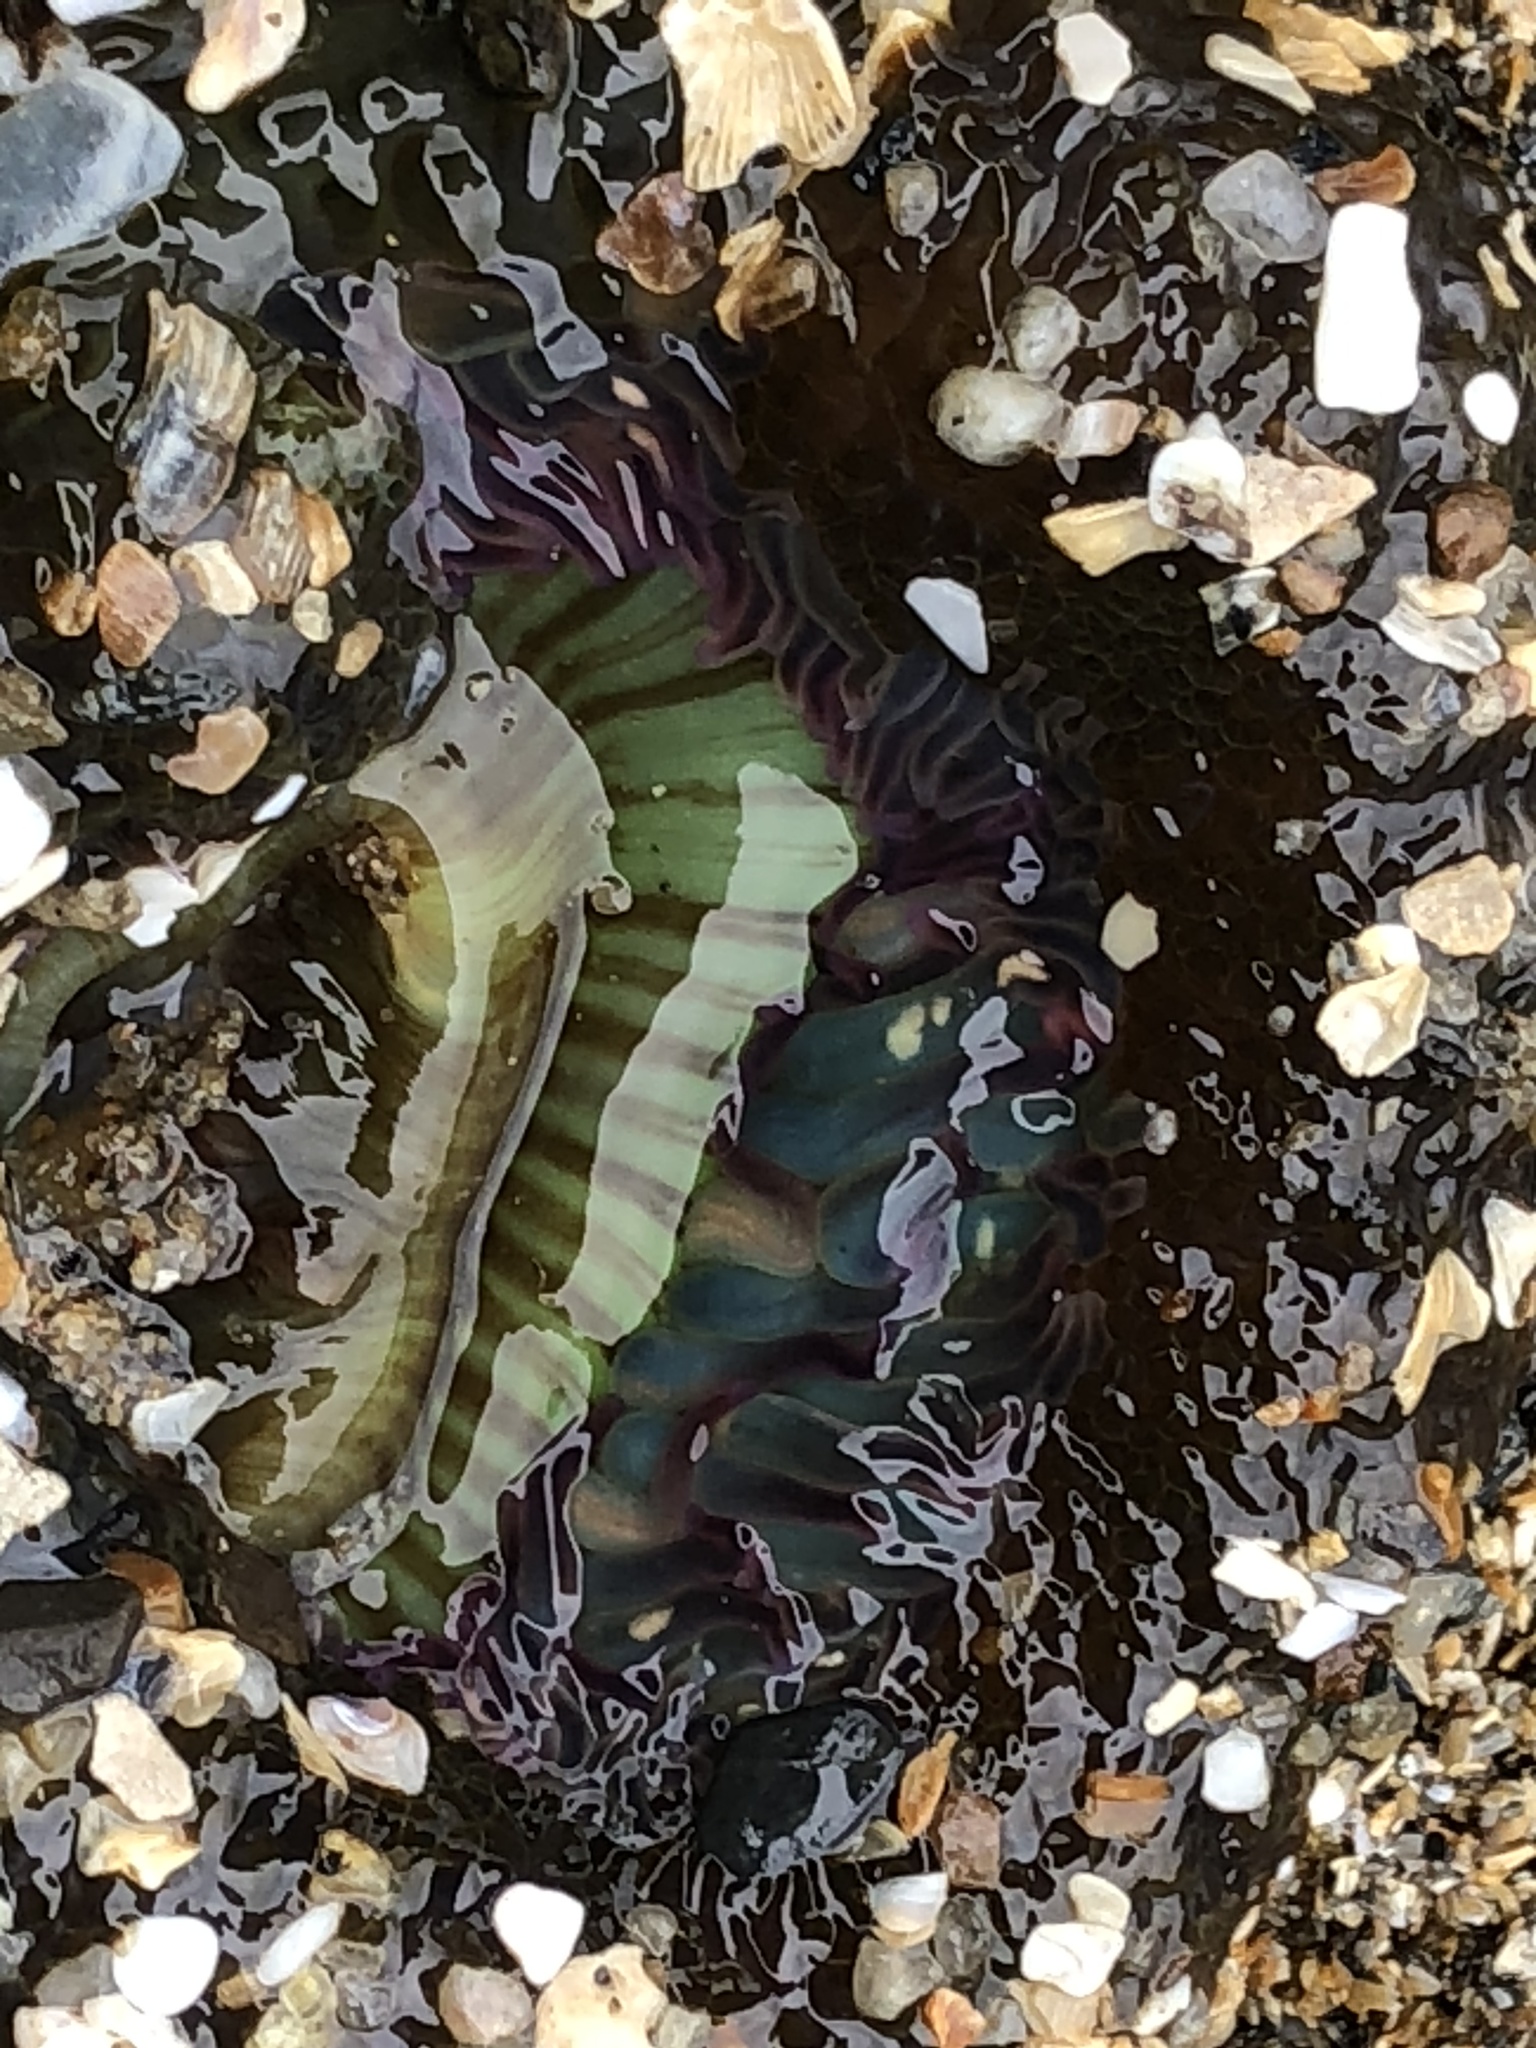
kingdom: Animalia
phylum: Cnidaria
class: Anthozoa
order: Actiniaria
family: Actiniidae
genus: Anthopleura
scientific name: Anthopleura sola
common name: Sun anemone
